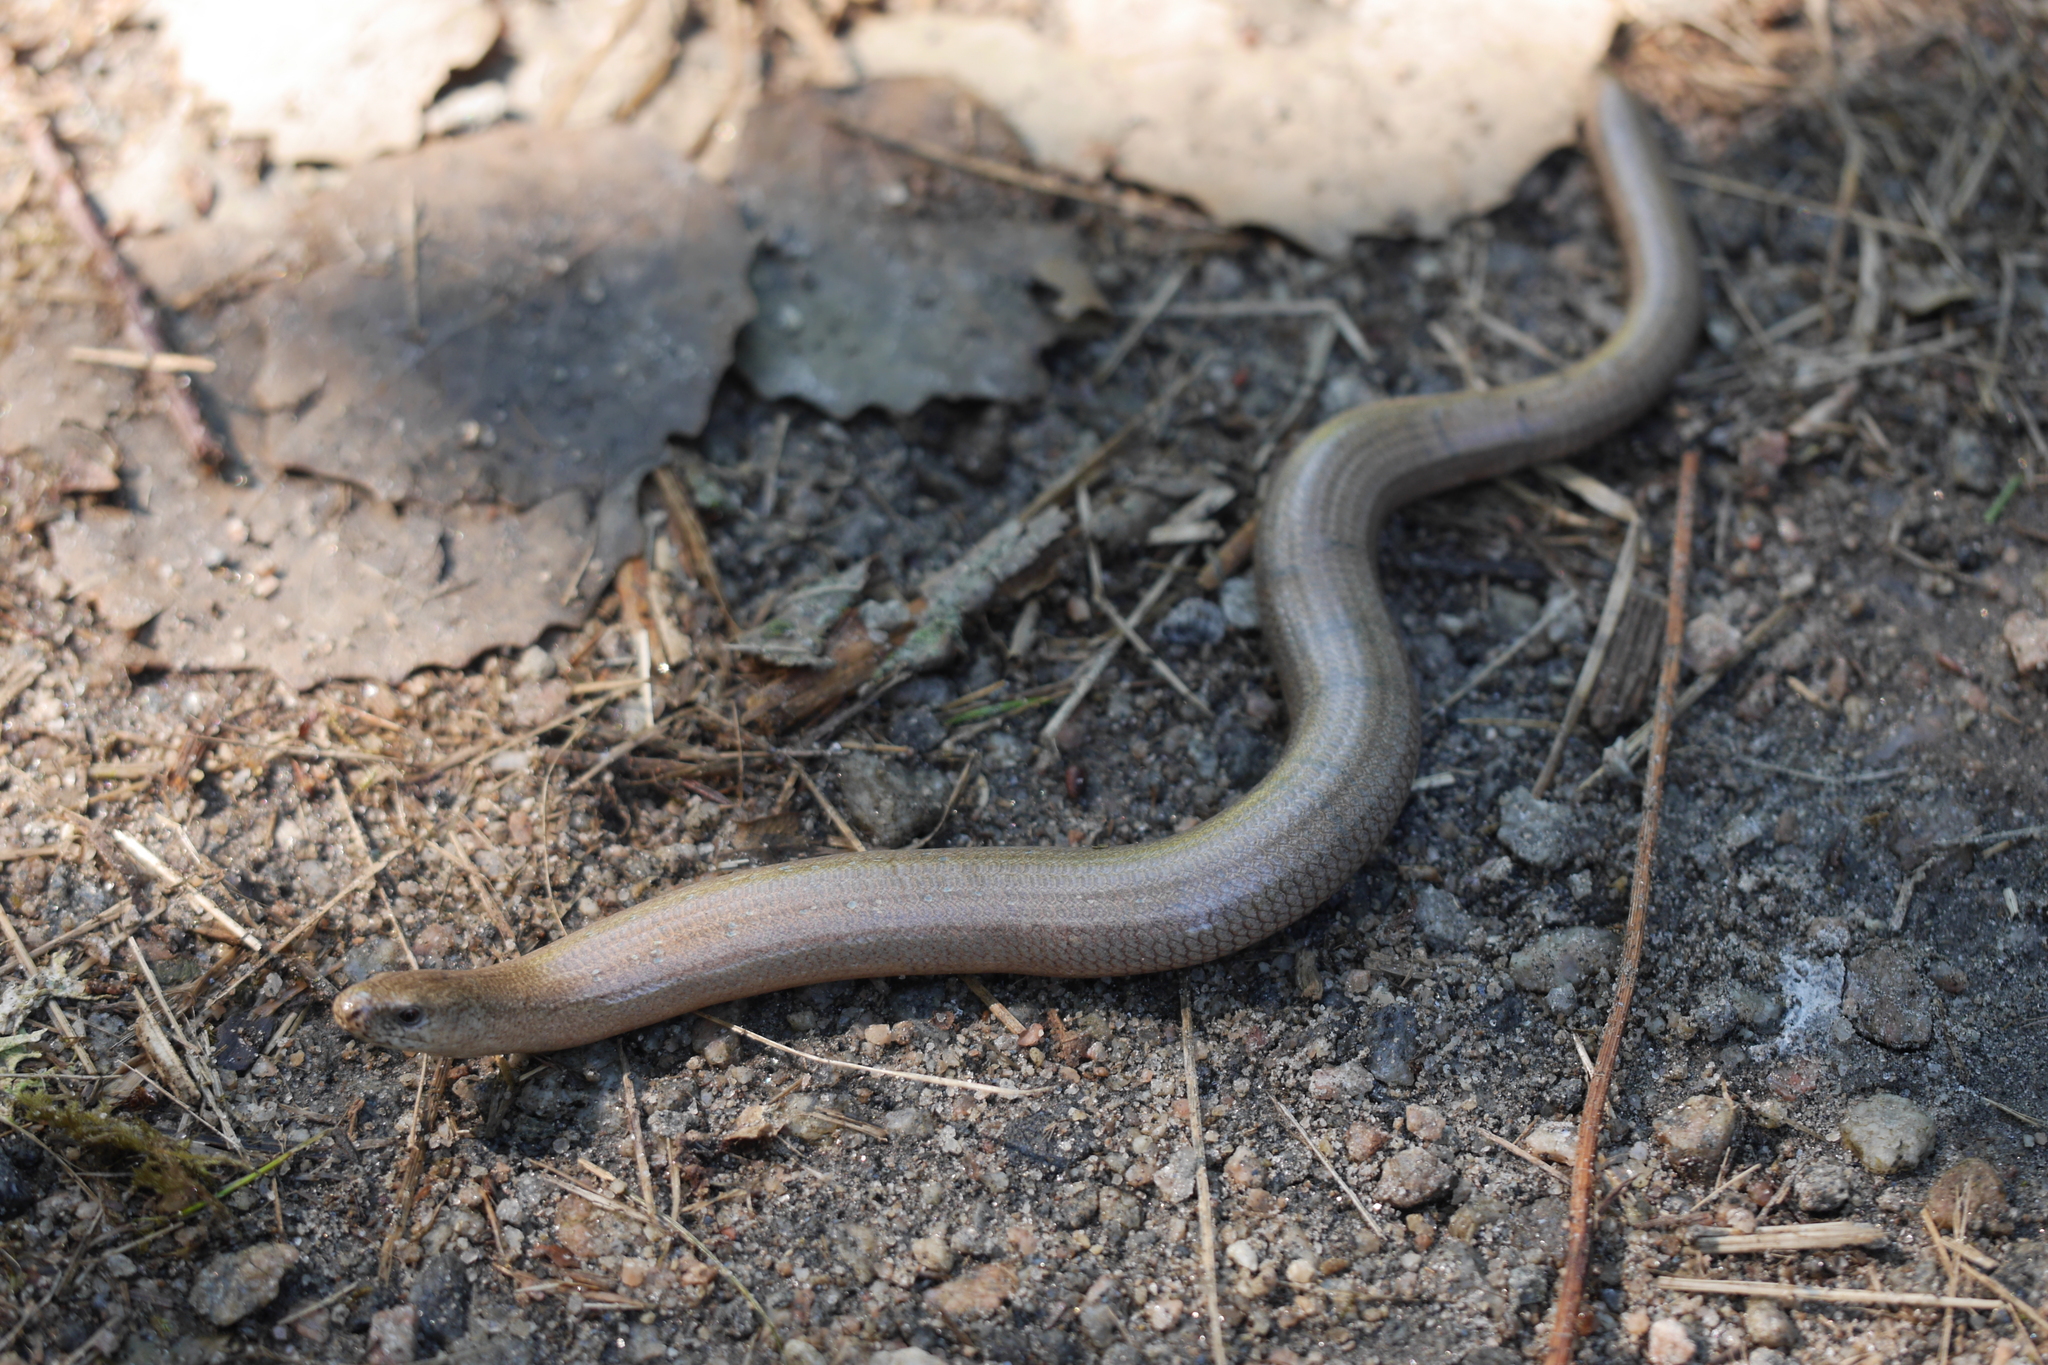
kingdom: Animalia
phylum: Chordata
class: Squamata
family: Anguidae
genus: Anguis
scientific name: Anguis fragilis
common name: Slow worm
